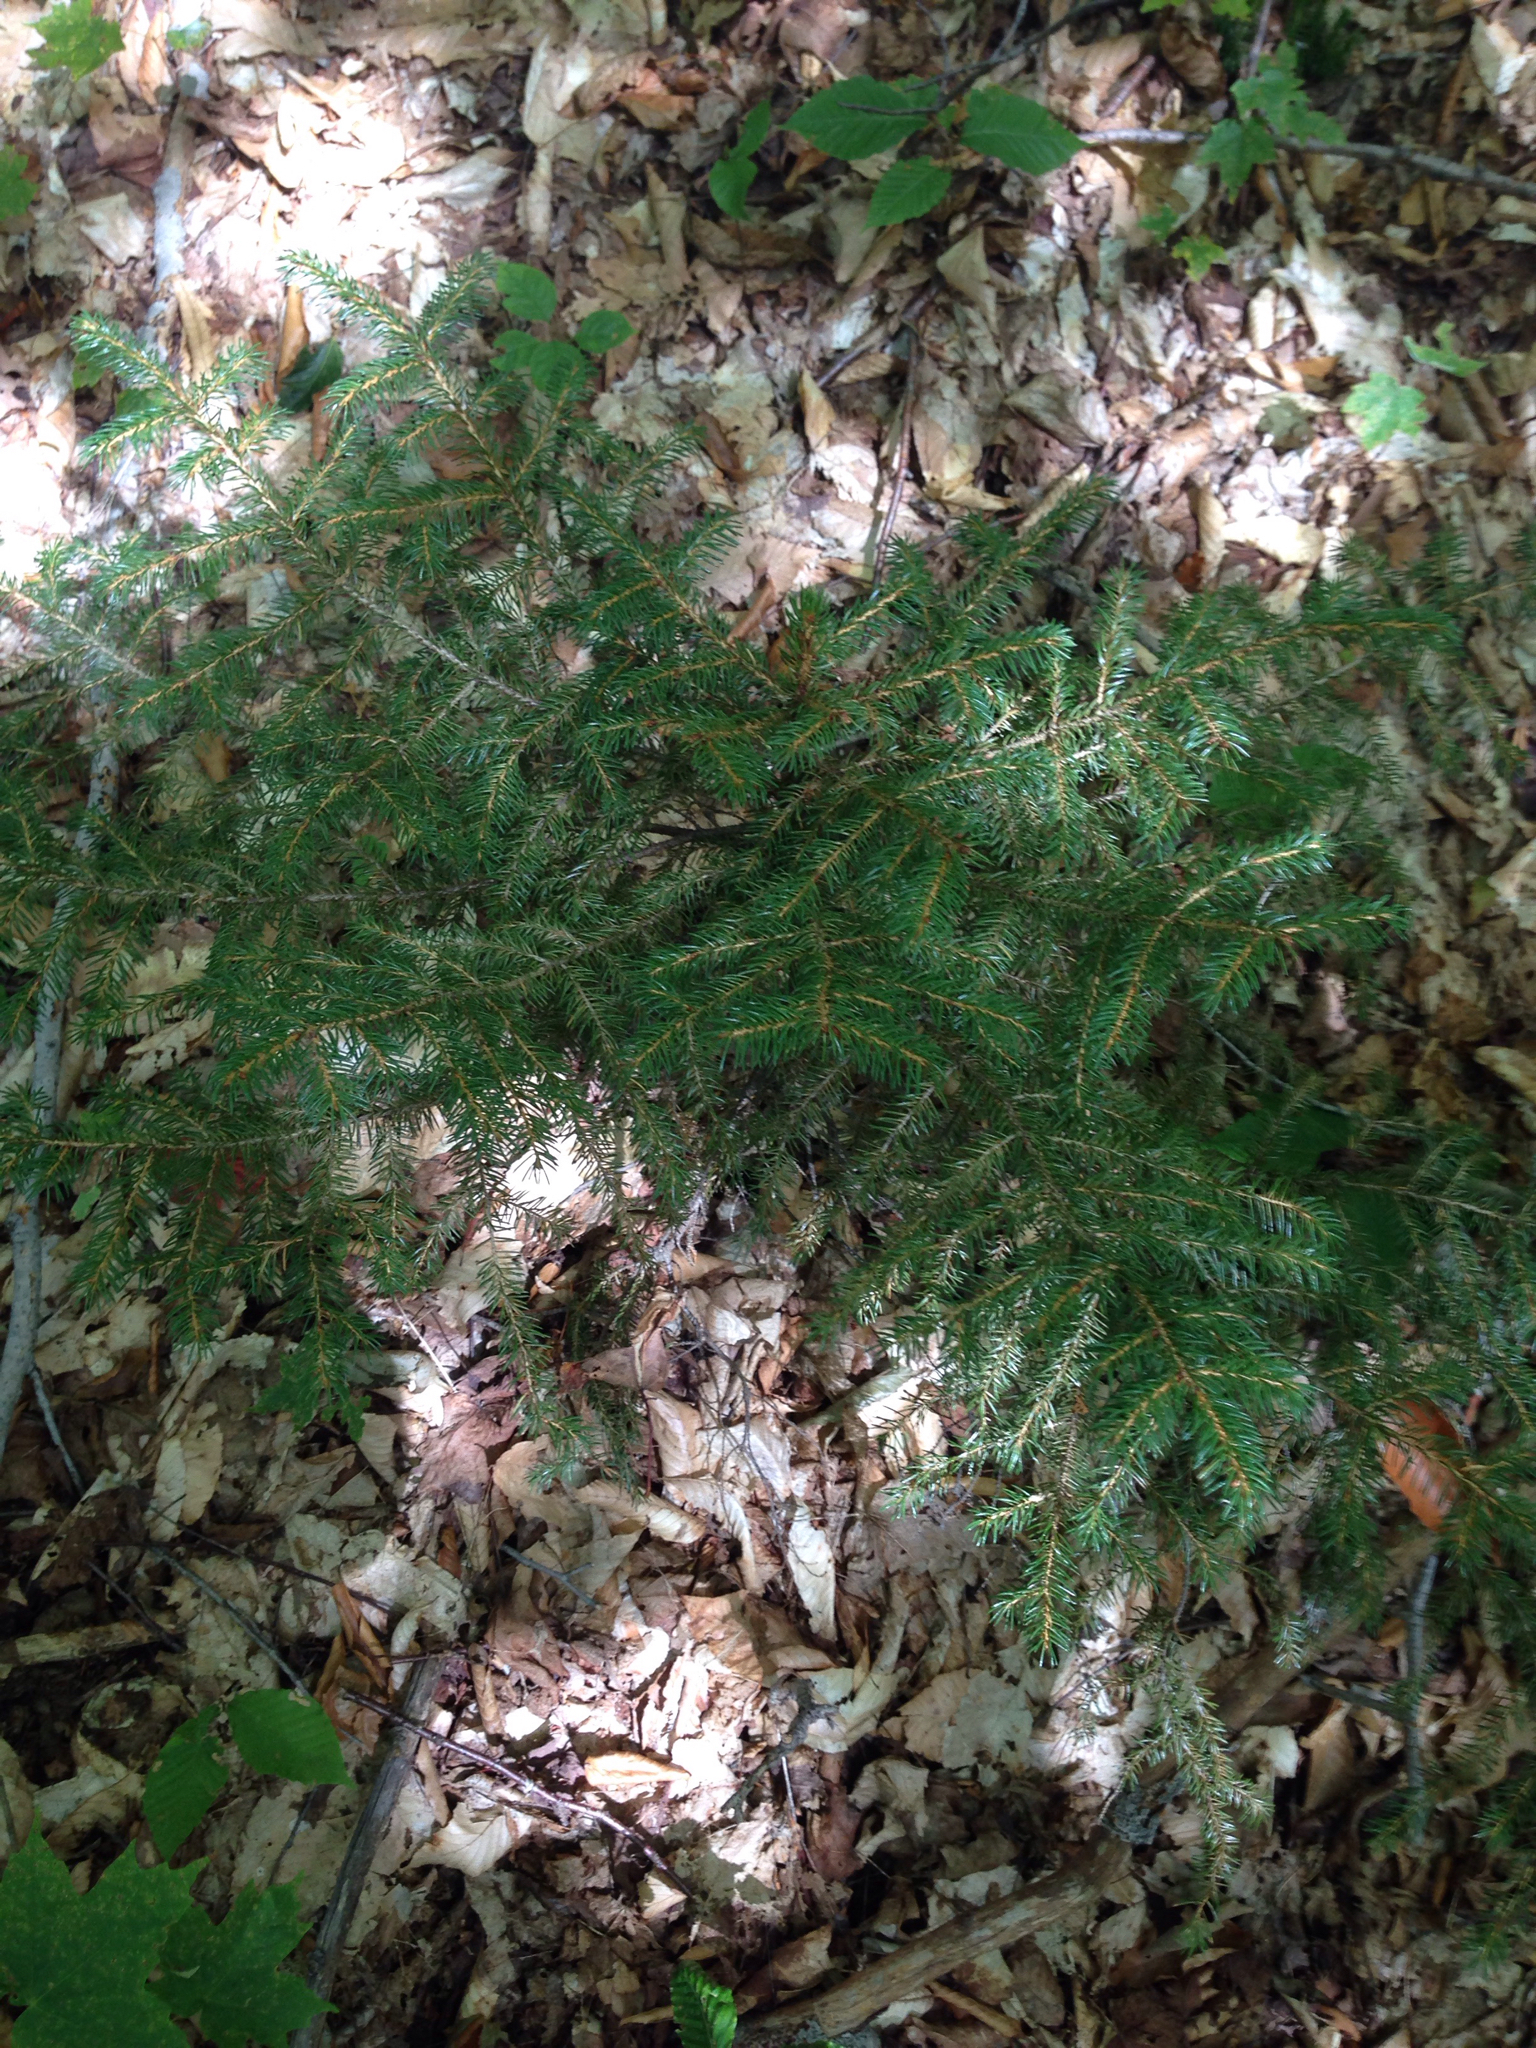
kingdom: Plantae
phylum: Tracheophyta
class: Pinopsida
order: Pinales
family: Pinaceae
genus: Picea
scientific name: Picea rubens
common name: Red spruce
